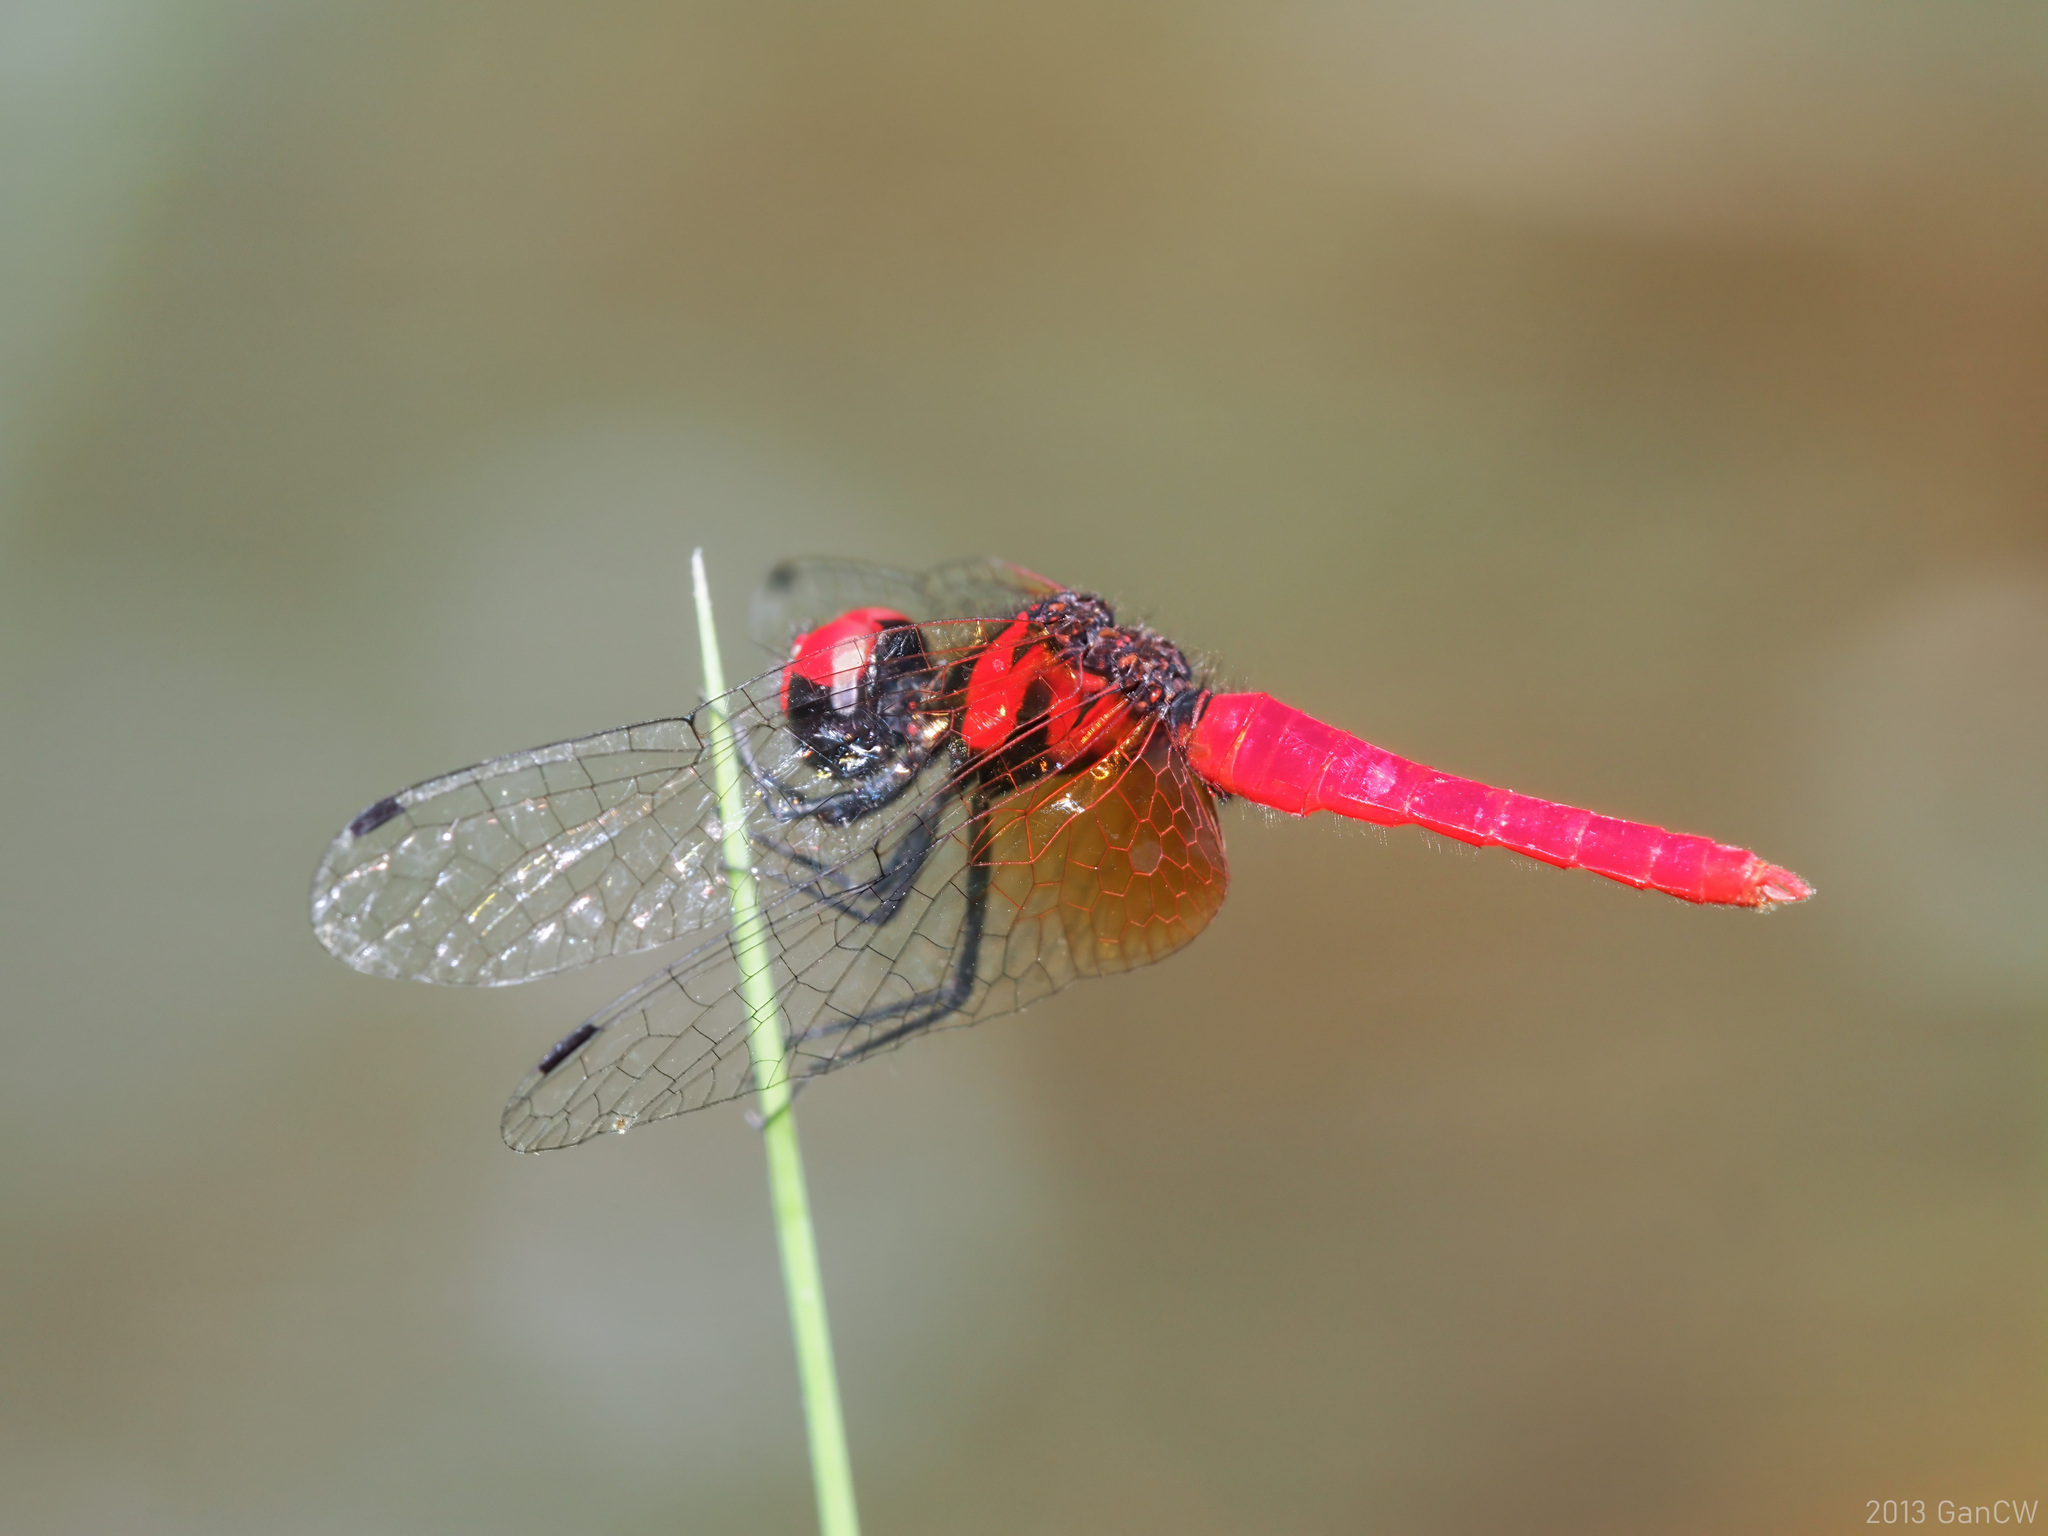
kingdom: Animalia
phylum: Arthropoda
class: Insecta
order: Odonata
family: Libellulidae
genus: Nannophya
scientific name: Nannophya pygmaea
